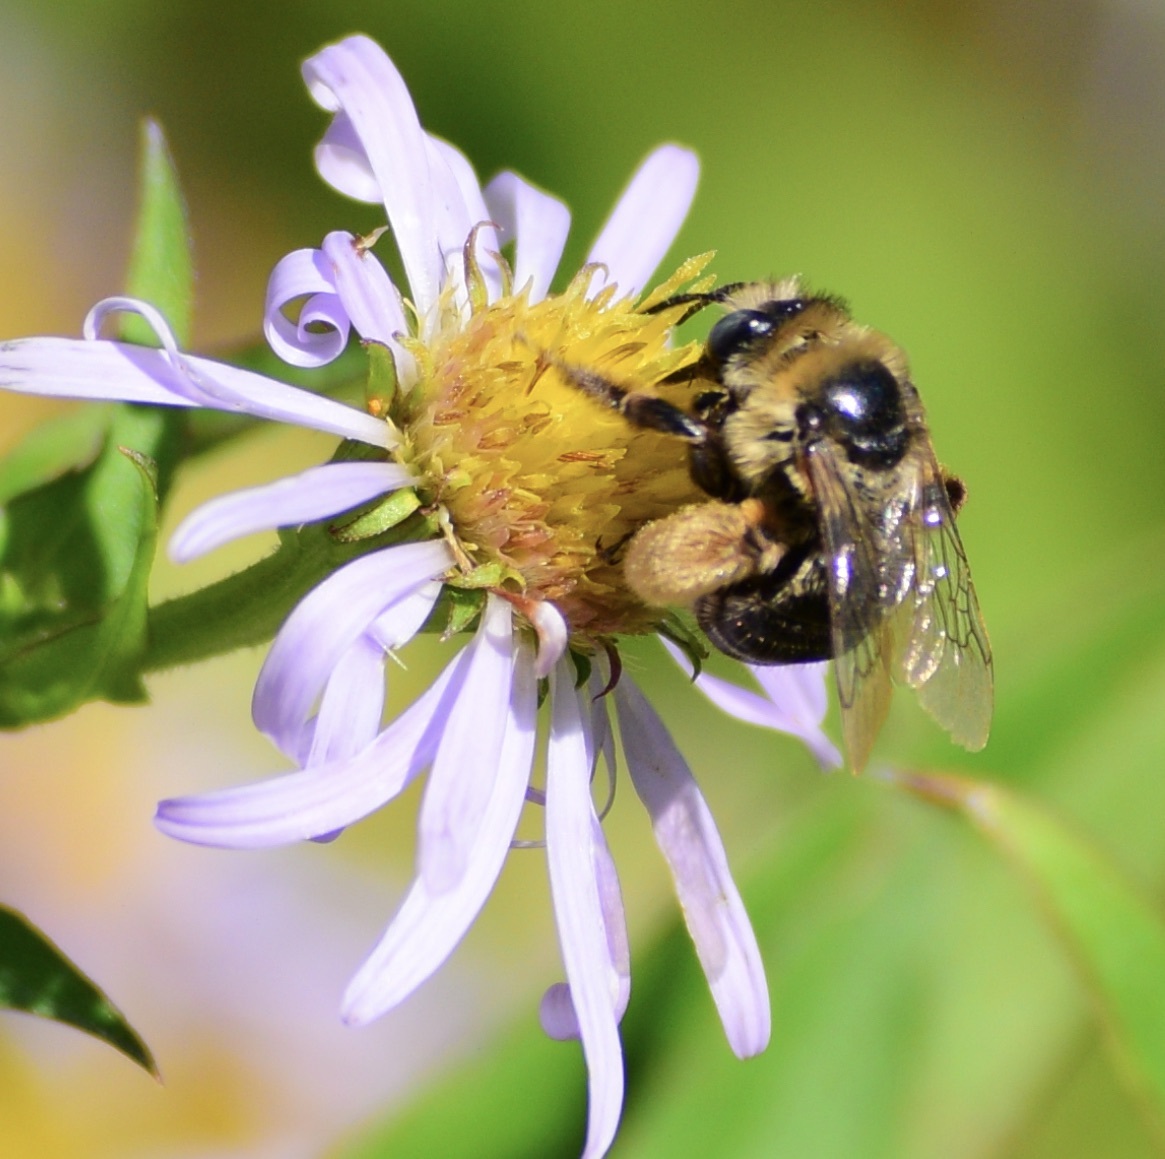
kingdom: Animalia
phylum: Arthropoda
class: Insecta
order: Hymenoptera
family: Apidae
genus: Melissodes
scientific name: Melissodes druriellus
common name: Drury's long-horned bee
